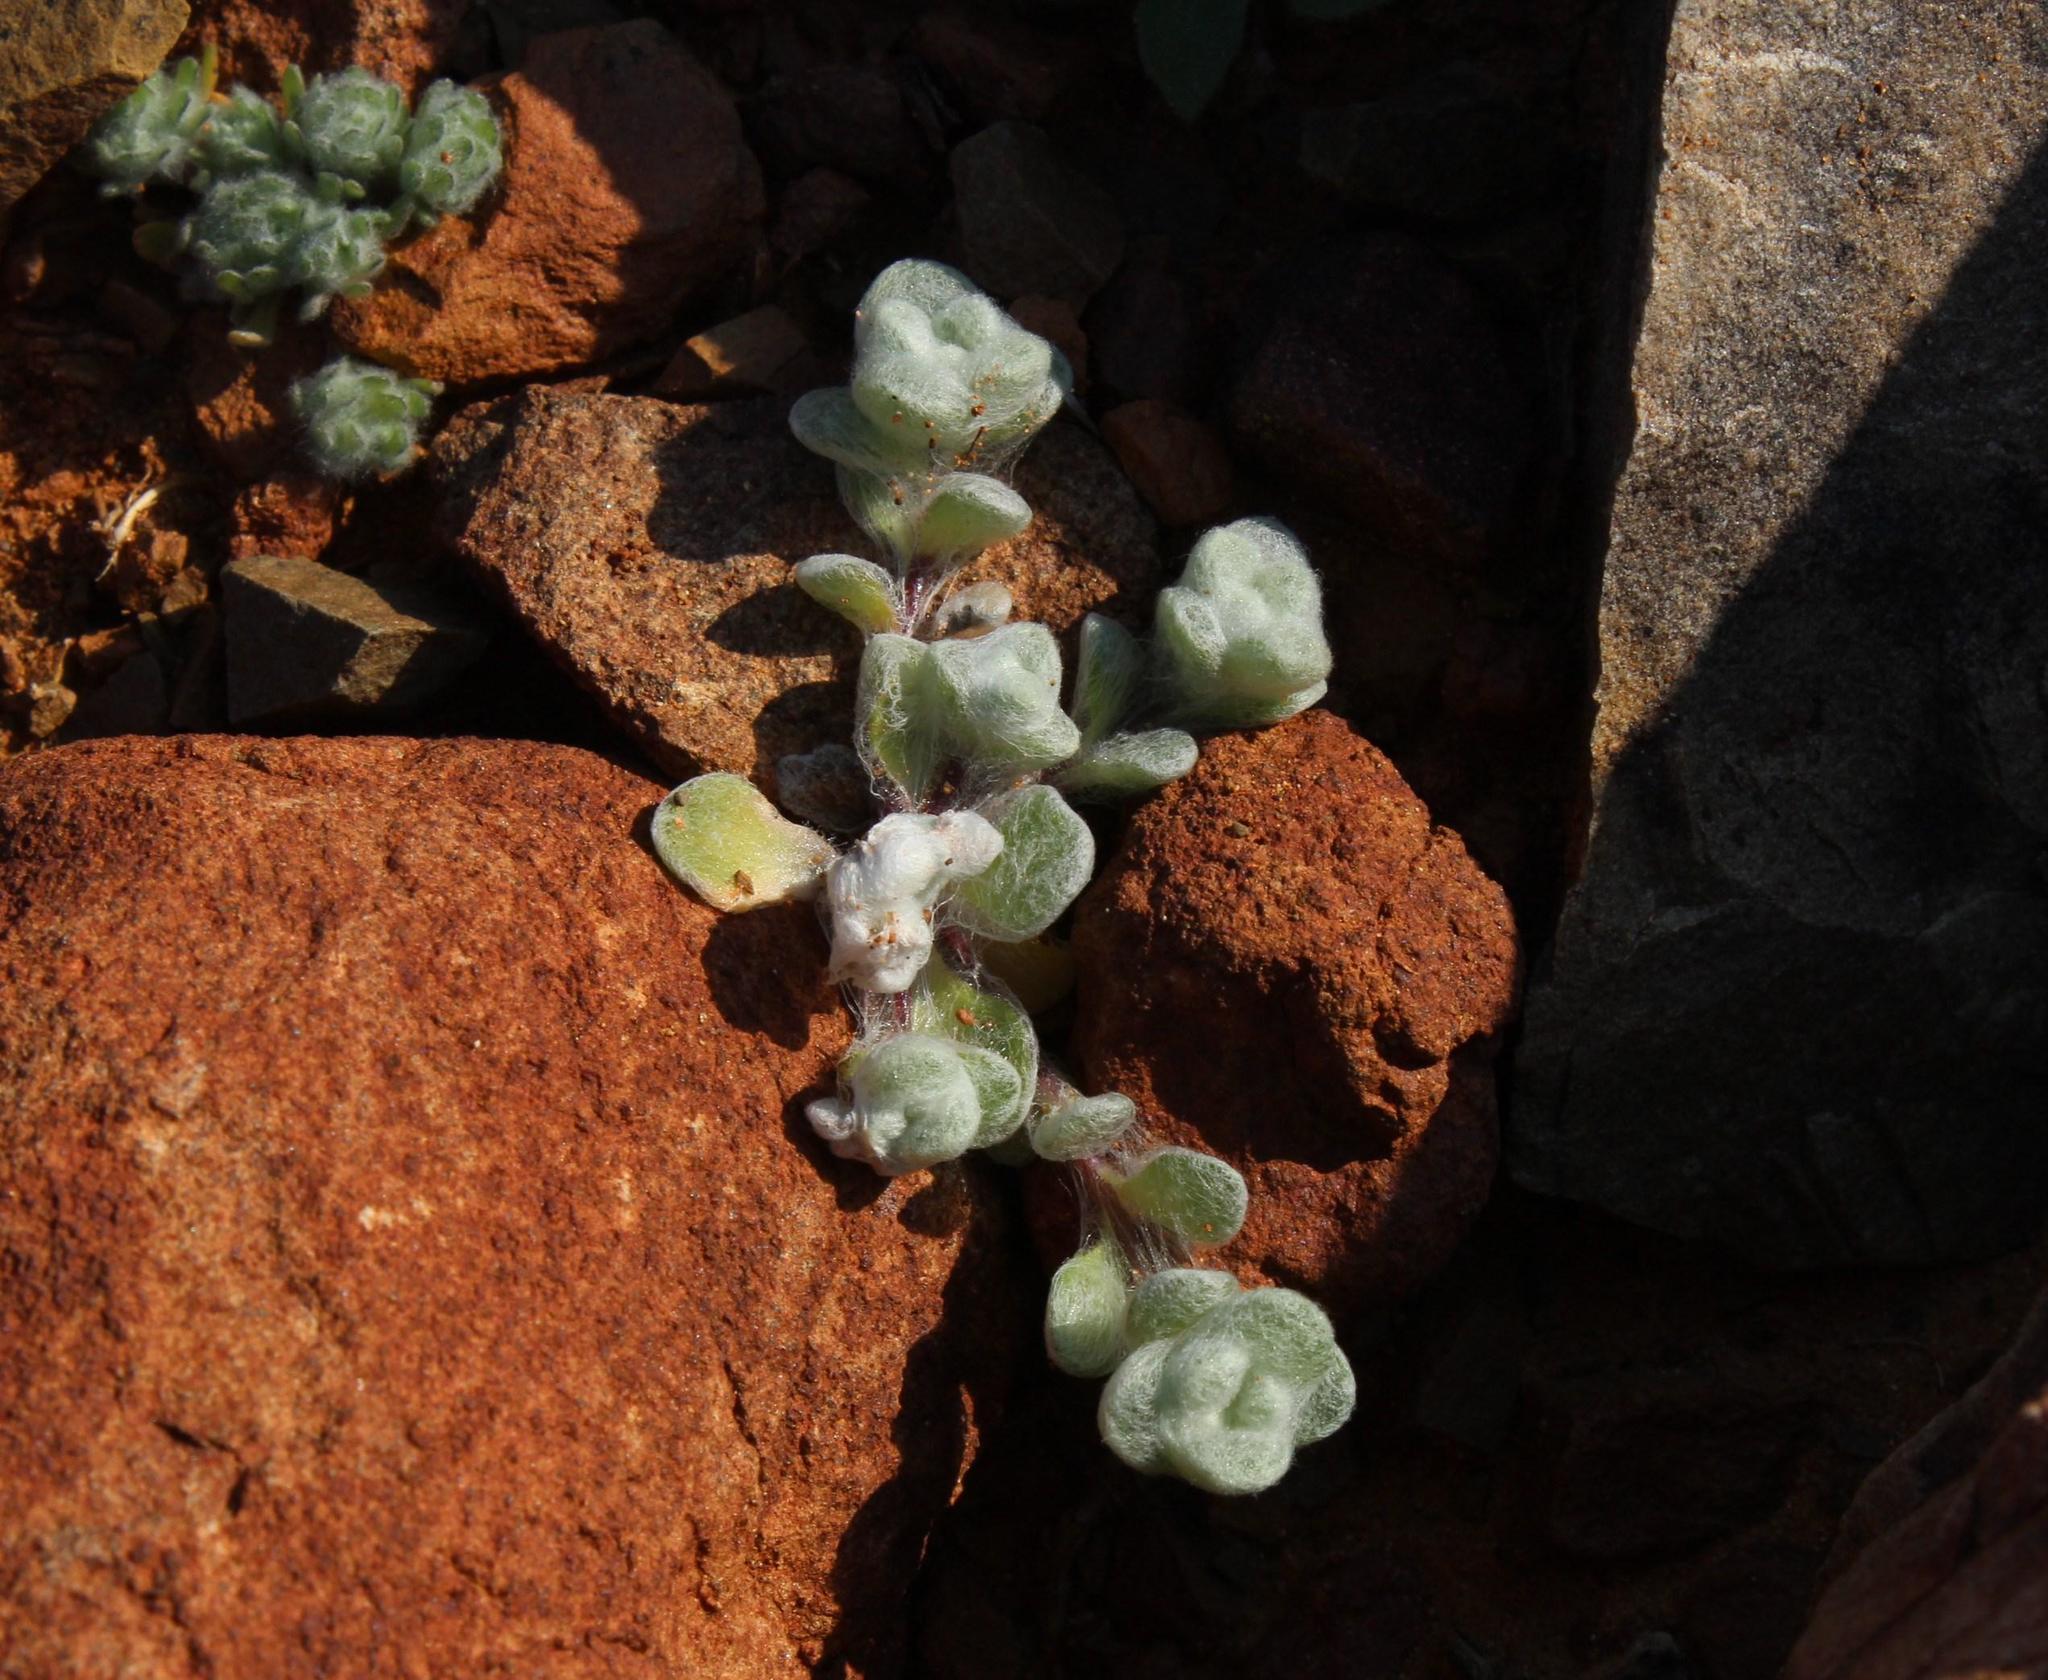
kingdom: Plantae
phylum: Tracheophyta
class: Magnoliopsida
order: Asterales
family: Asteraceae
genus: Galeomma
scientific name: Galeomma oculus-cati
